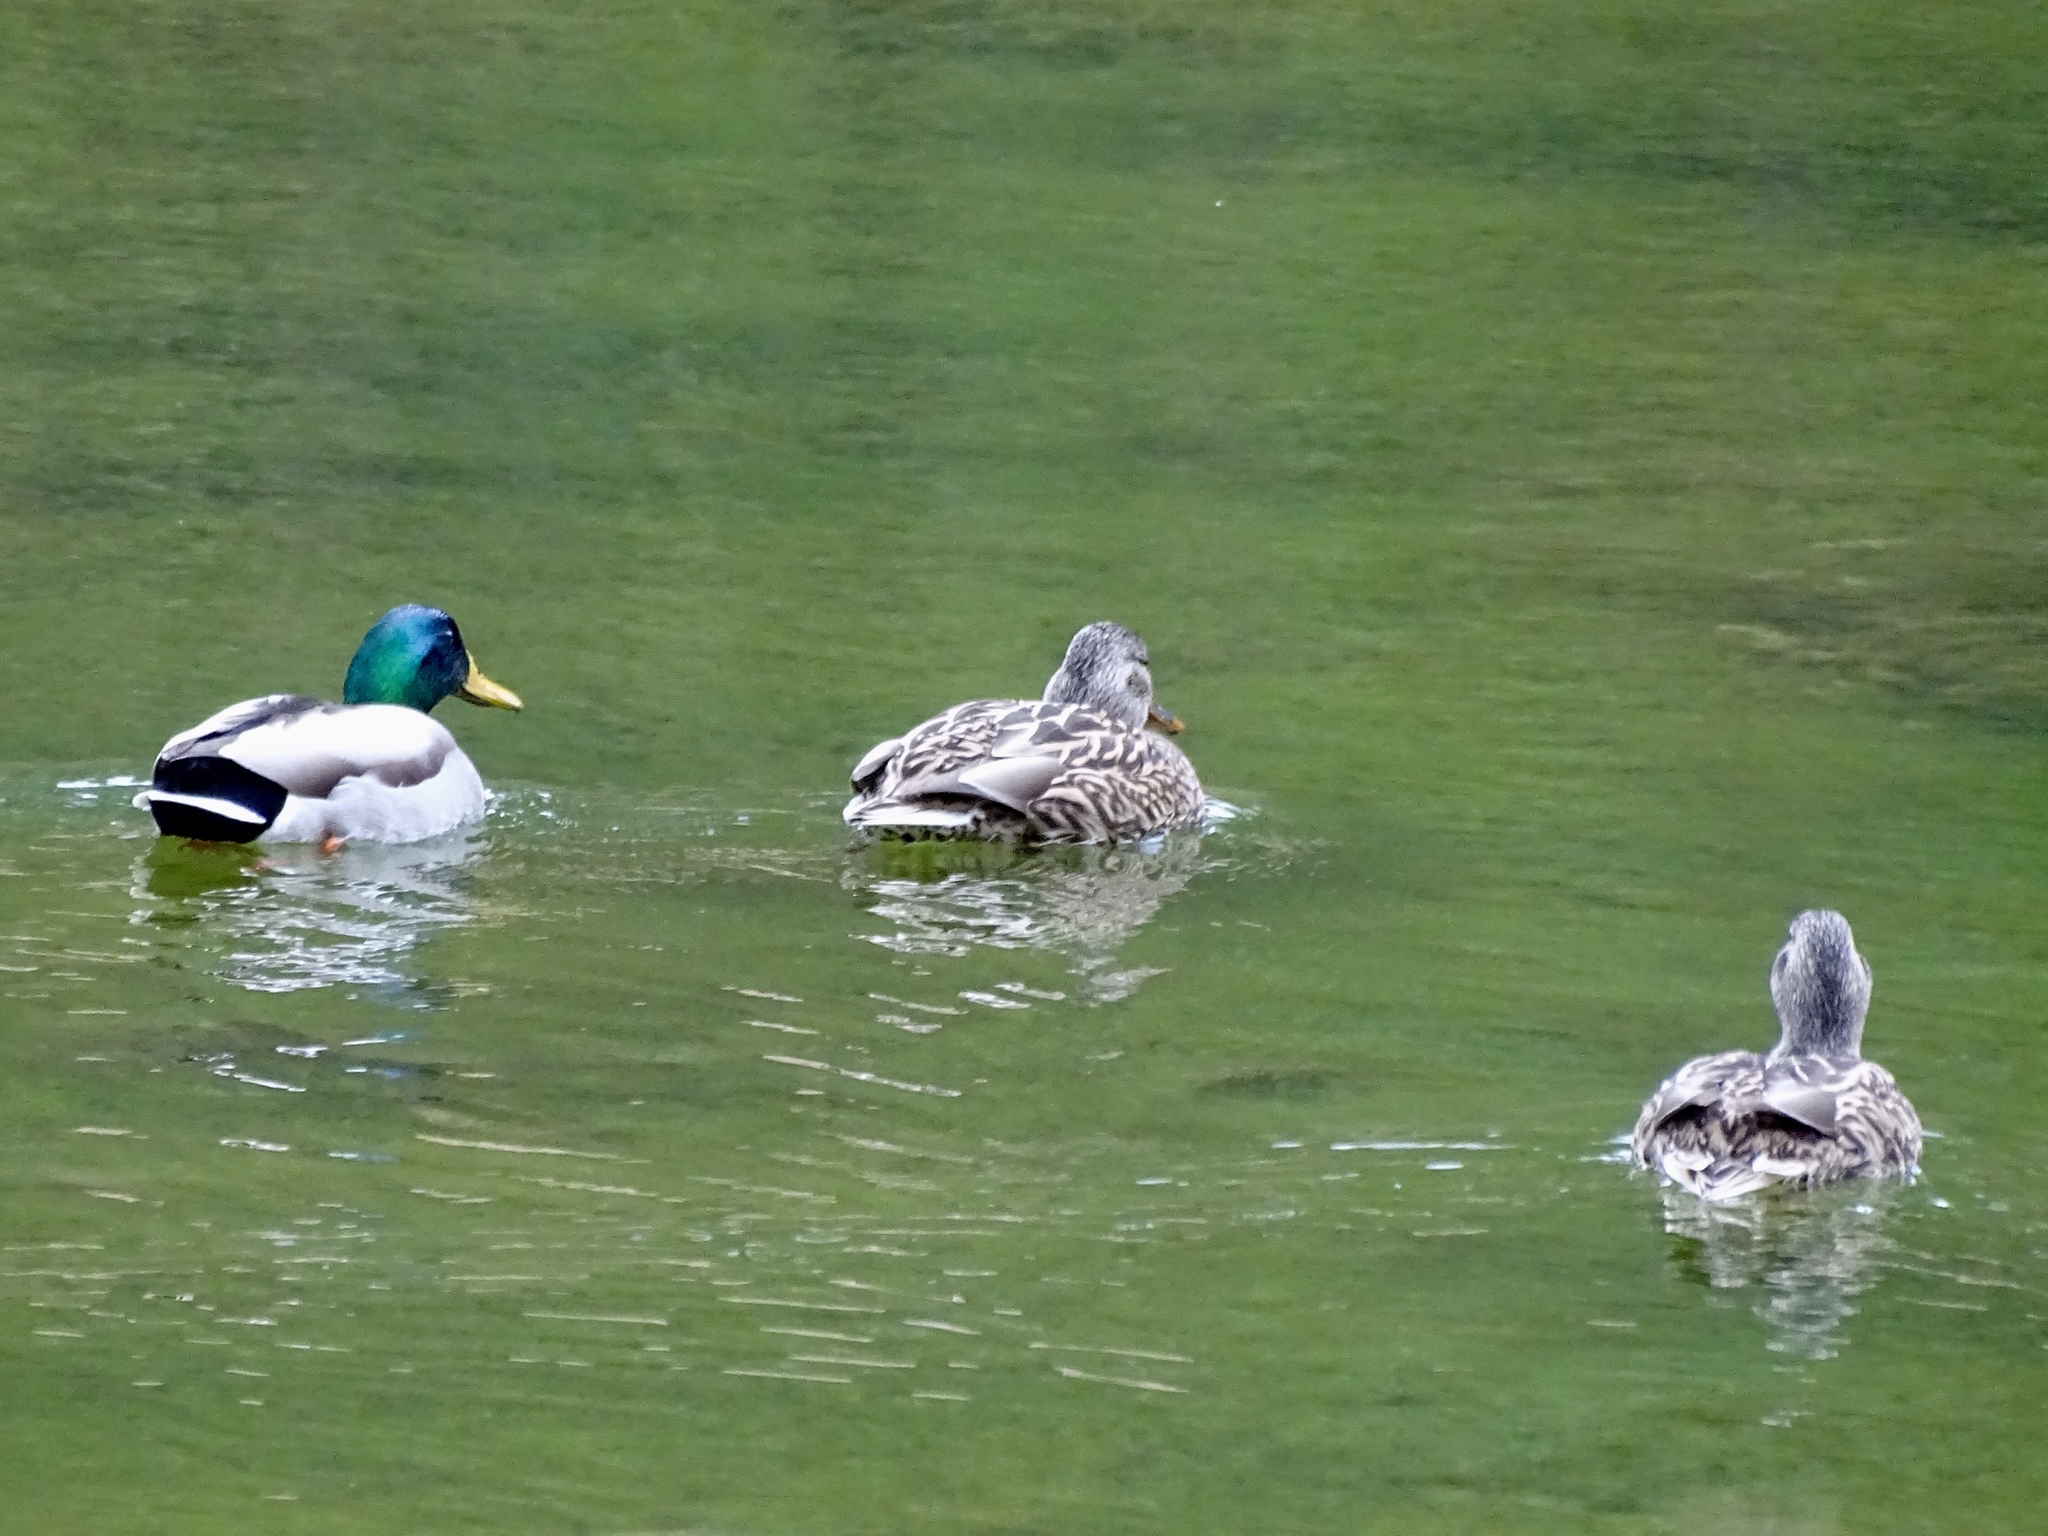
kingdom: Animalia
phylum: Chordata
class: Aves
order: Anseriformes
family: Anatidae
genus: Anas
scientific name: Anas platyrhynchos
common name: Mallard
